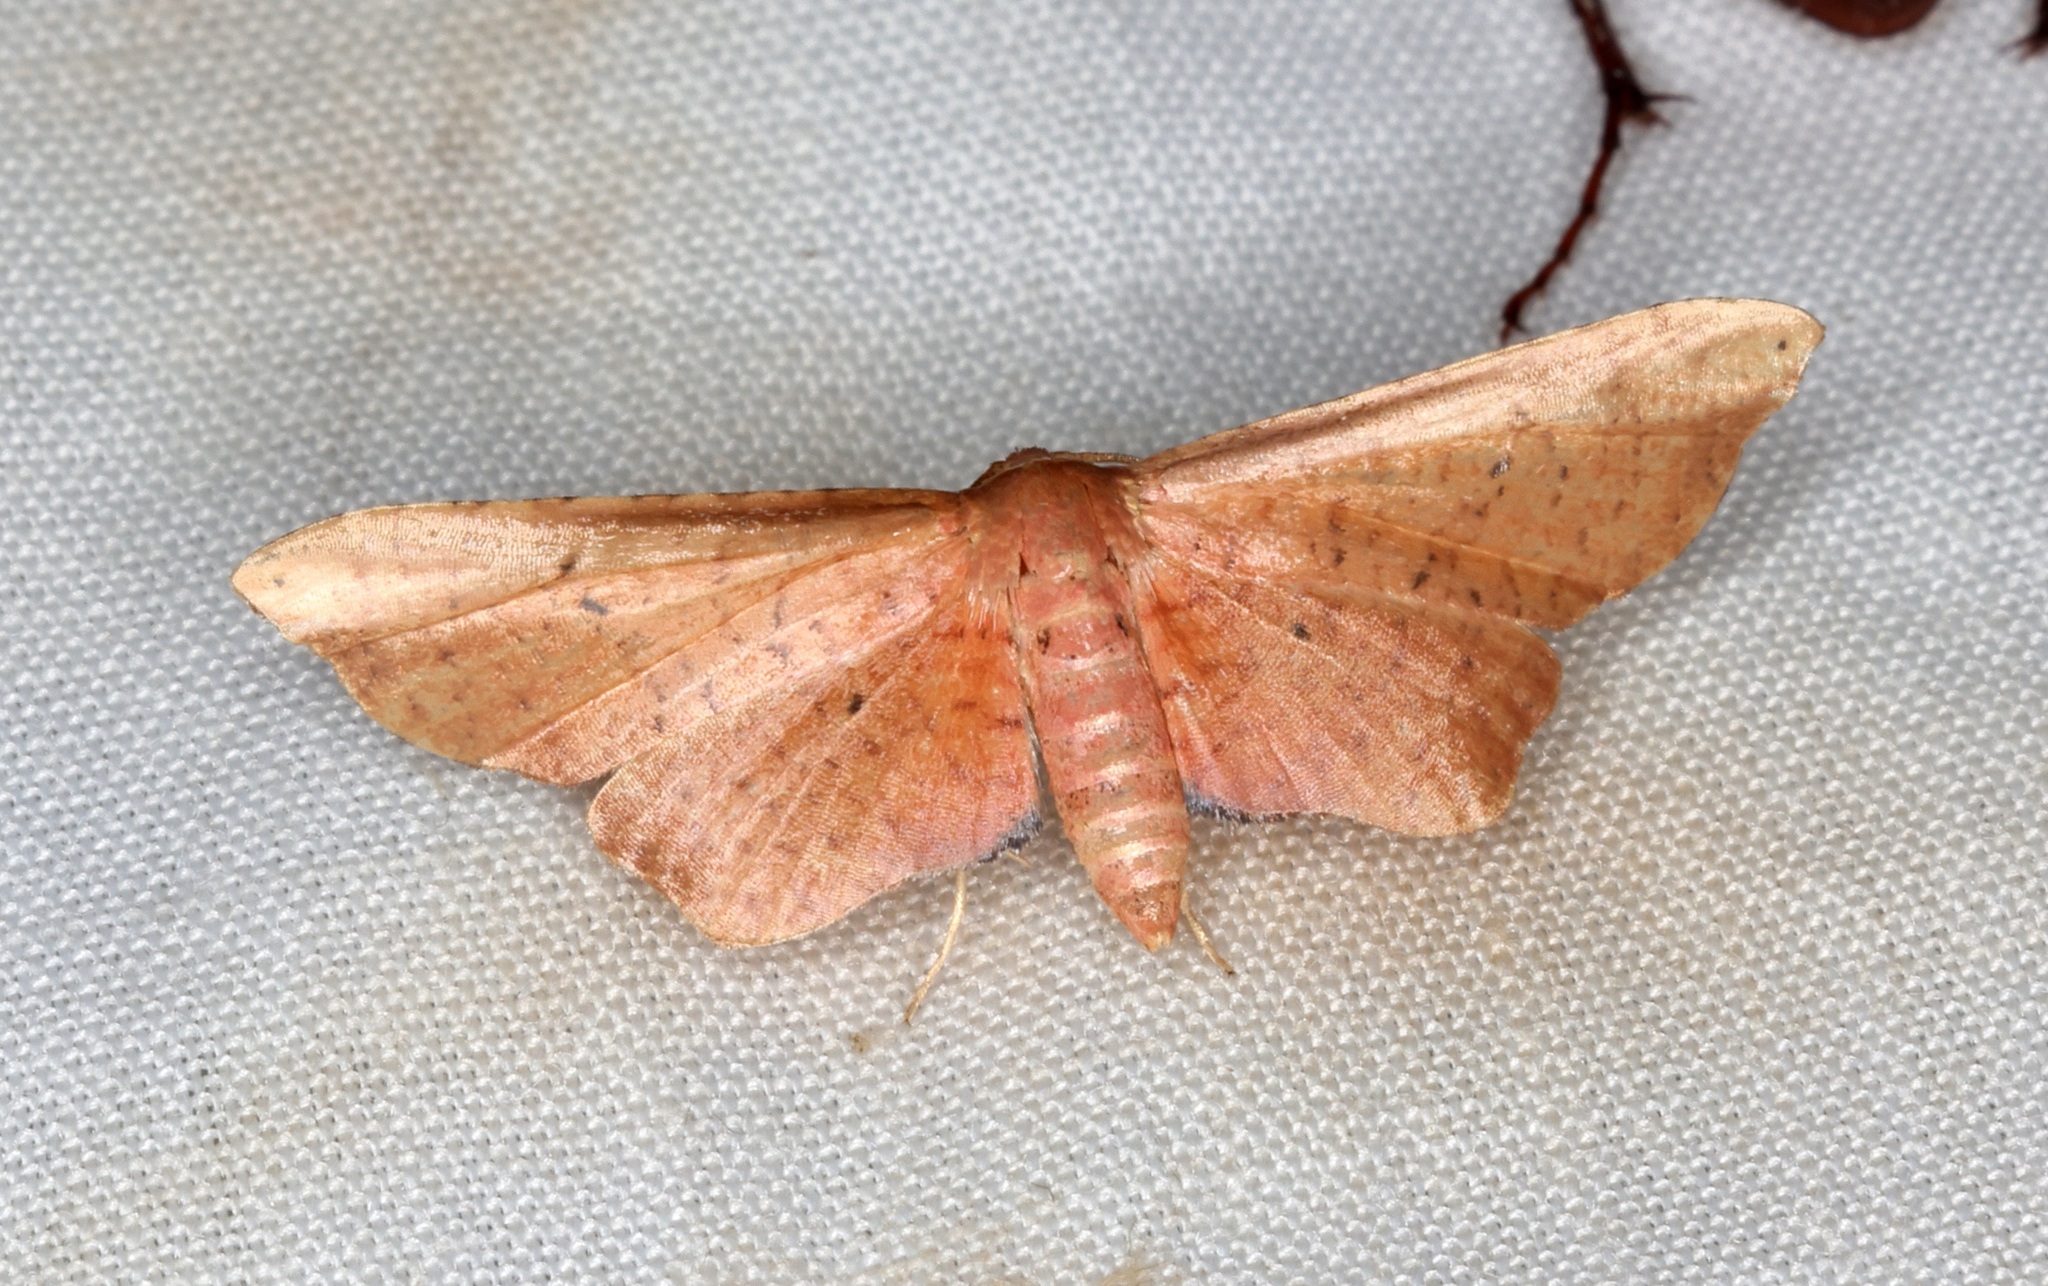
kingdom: Animalia
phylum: Arthropoda
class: Insecta
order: Lepidoptera
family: Thyrididae
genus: Hypolamprus
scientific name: Hypolamprus
